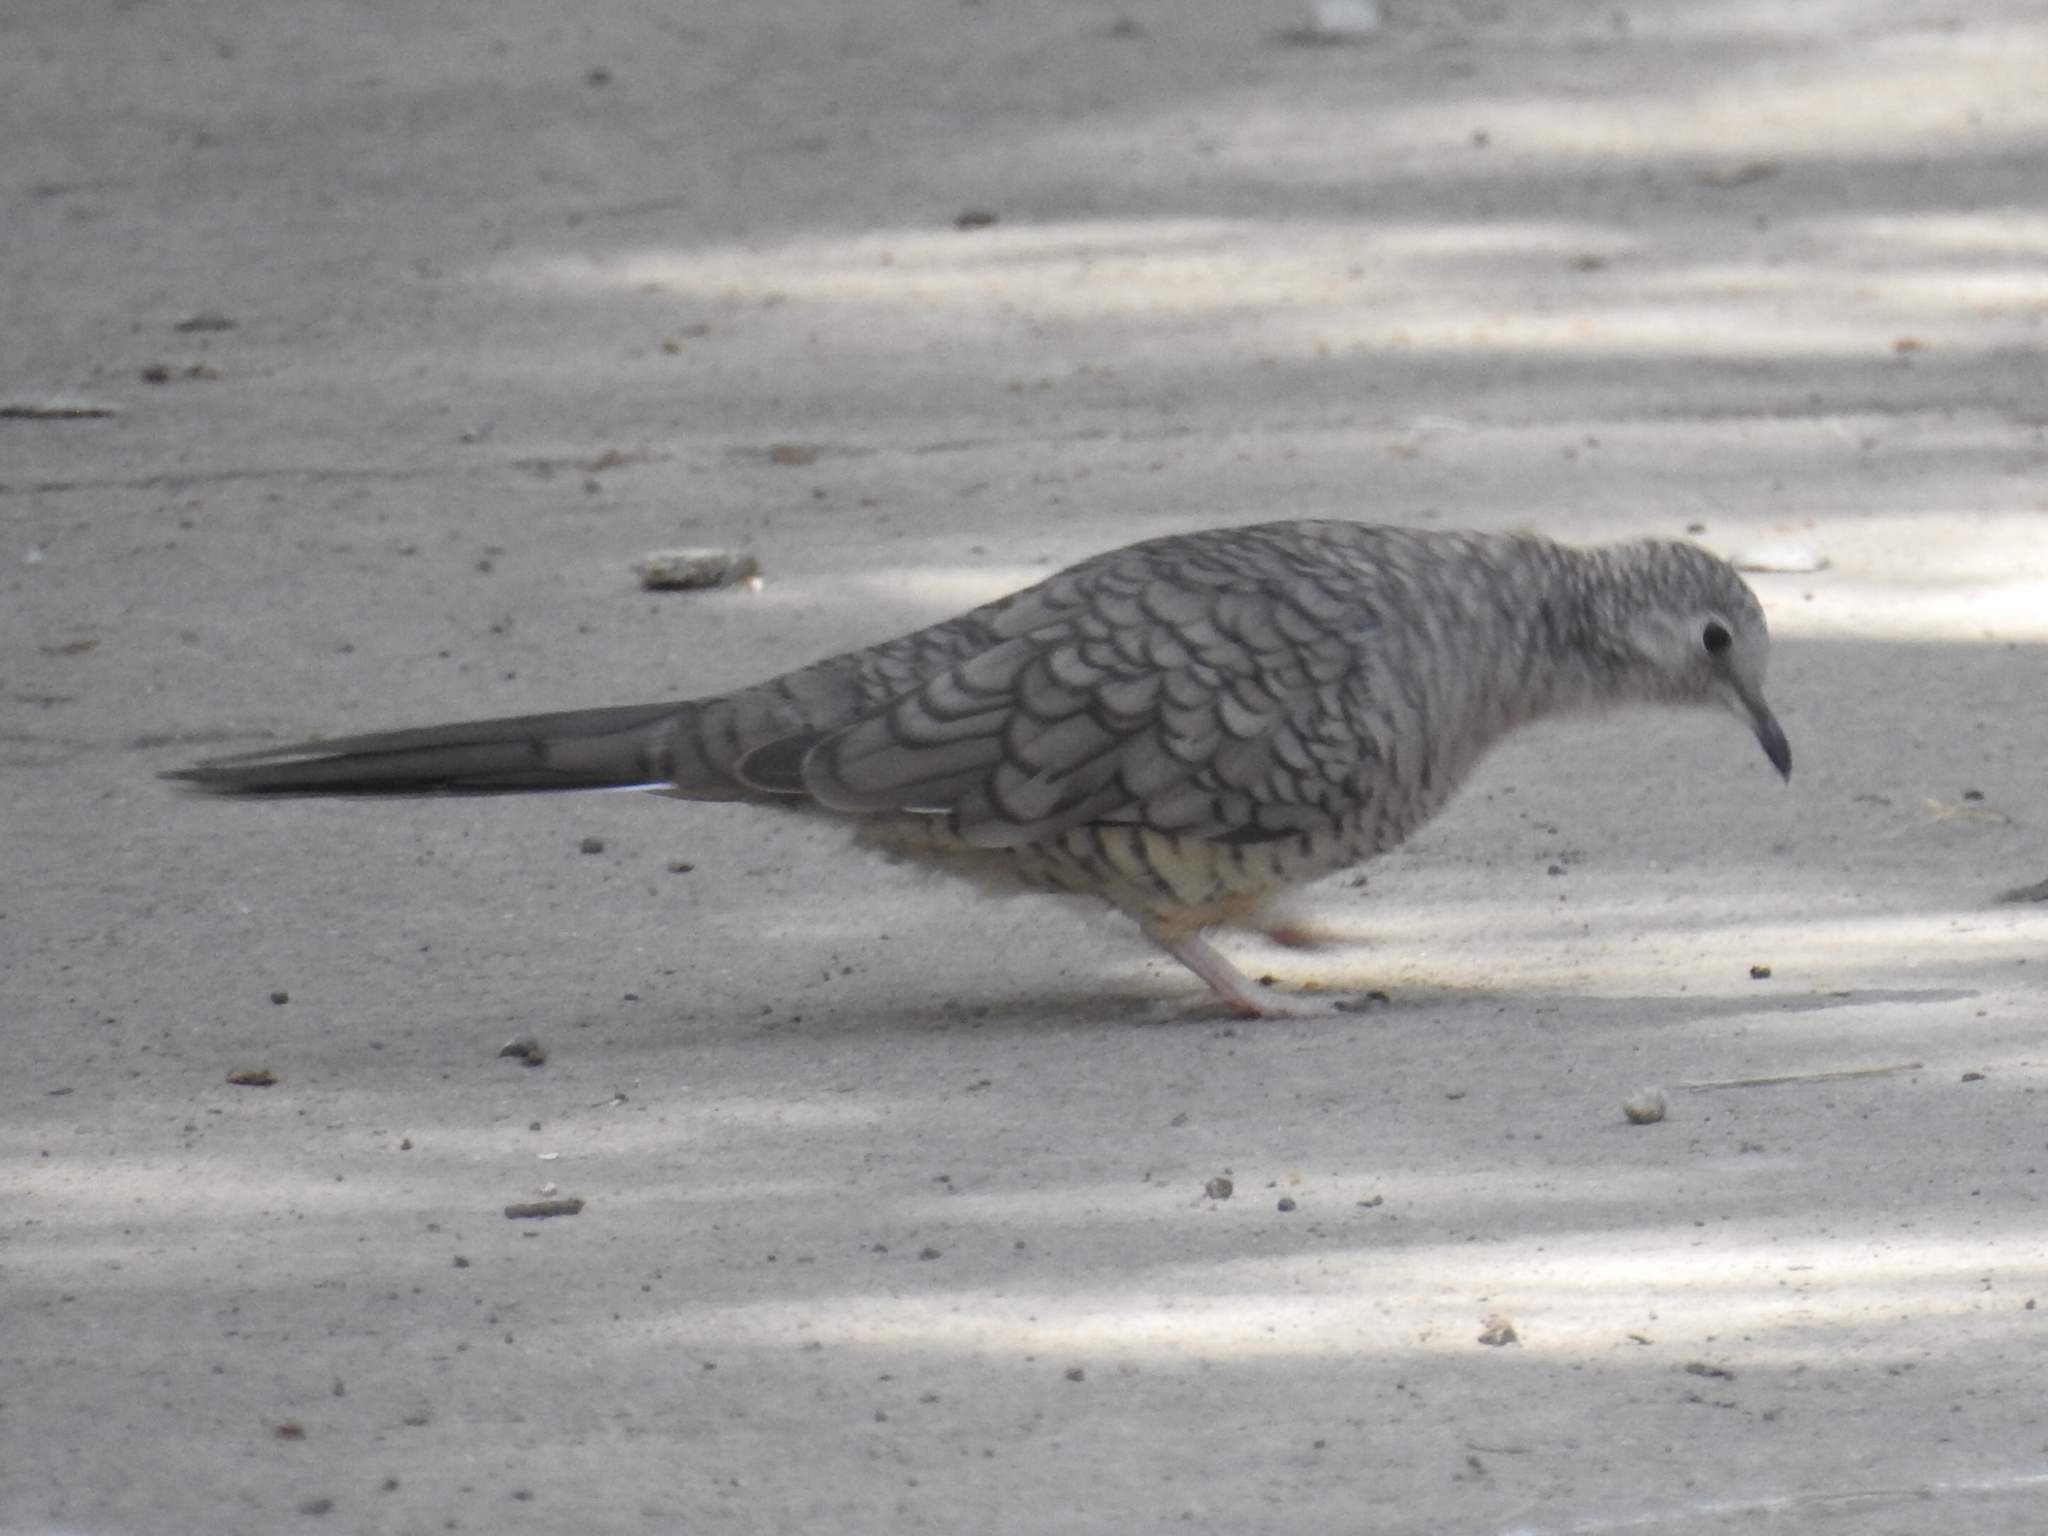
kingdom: Animalia
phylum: Chordata
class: Aves
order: Columbiformes
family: Columbidae
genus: Columbina
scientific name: Columbina inca
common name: Inca dove
